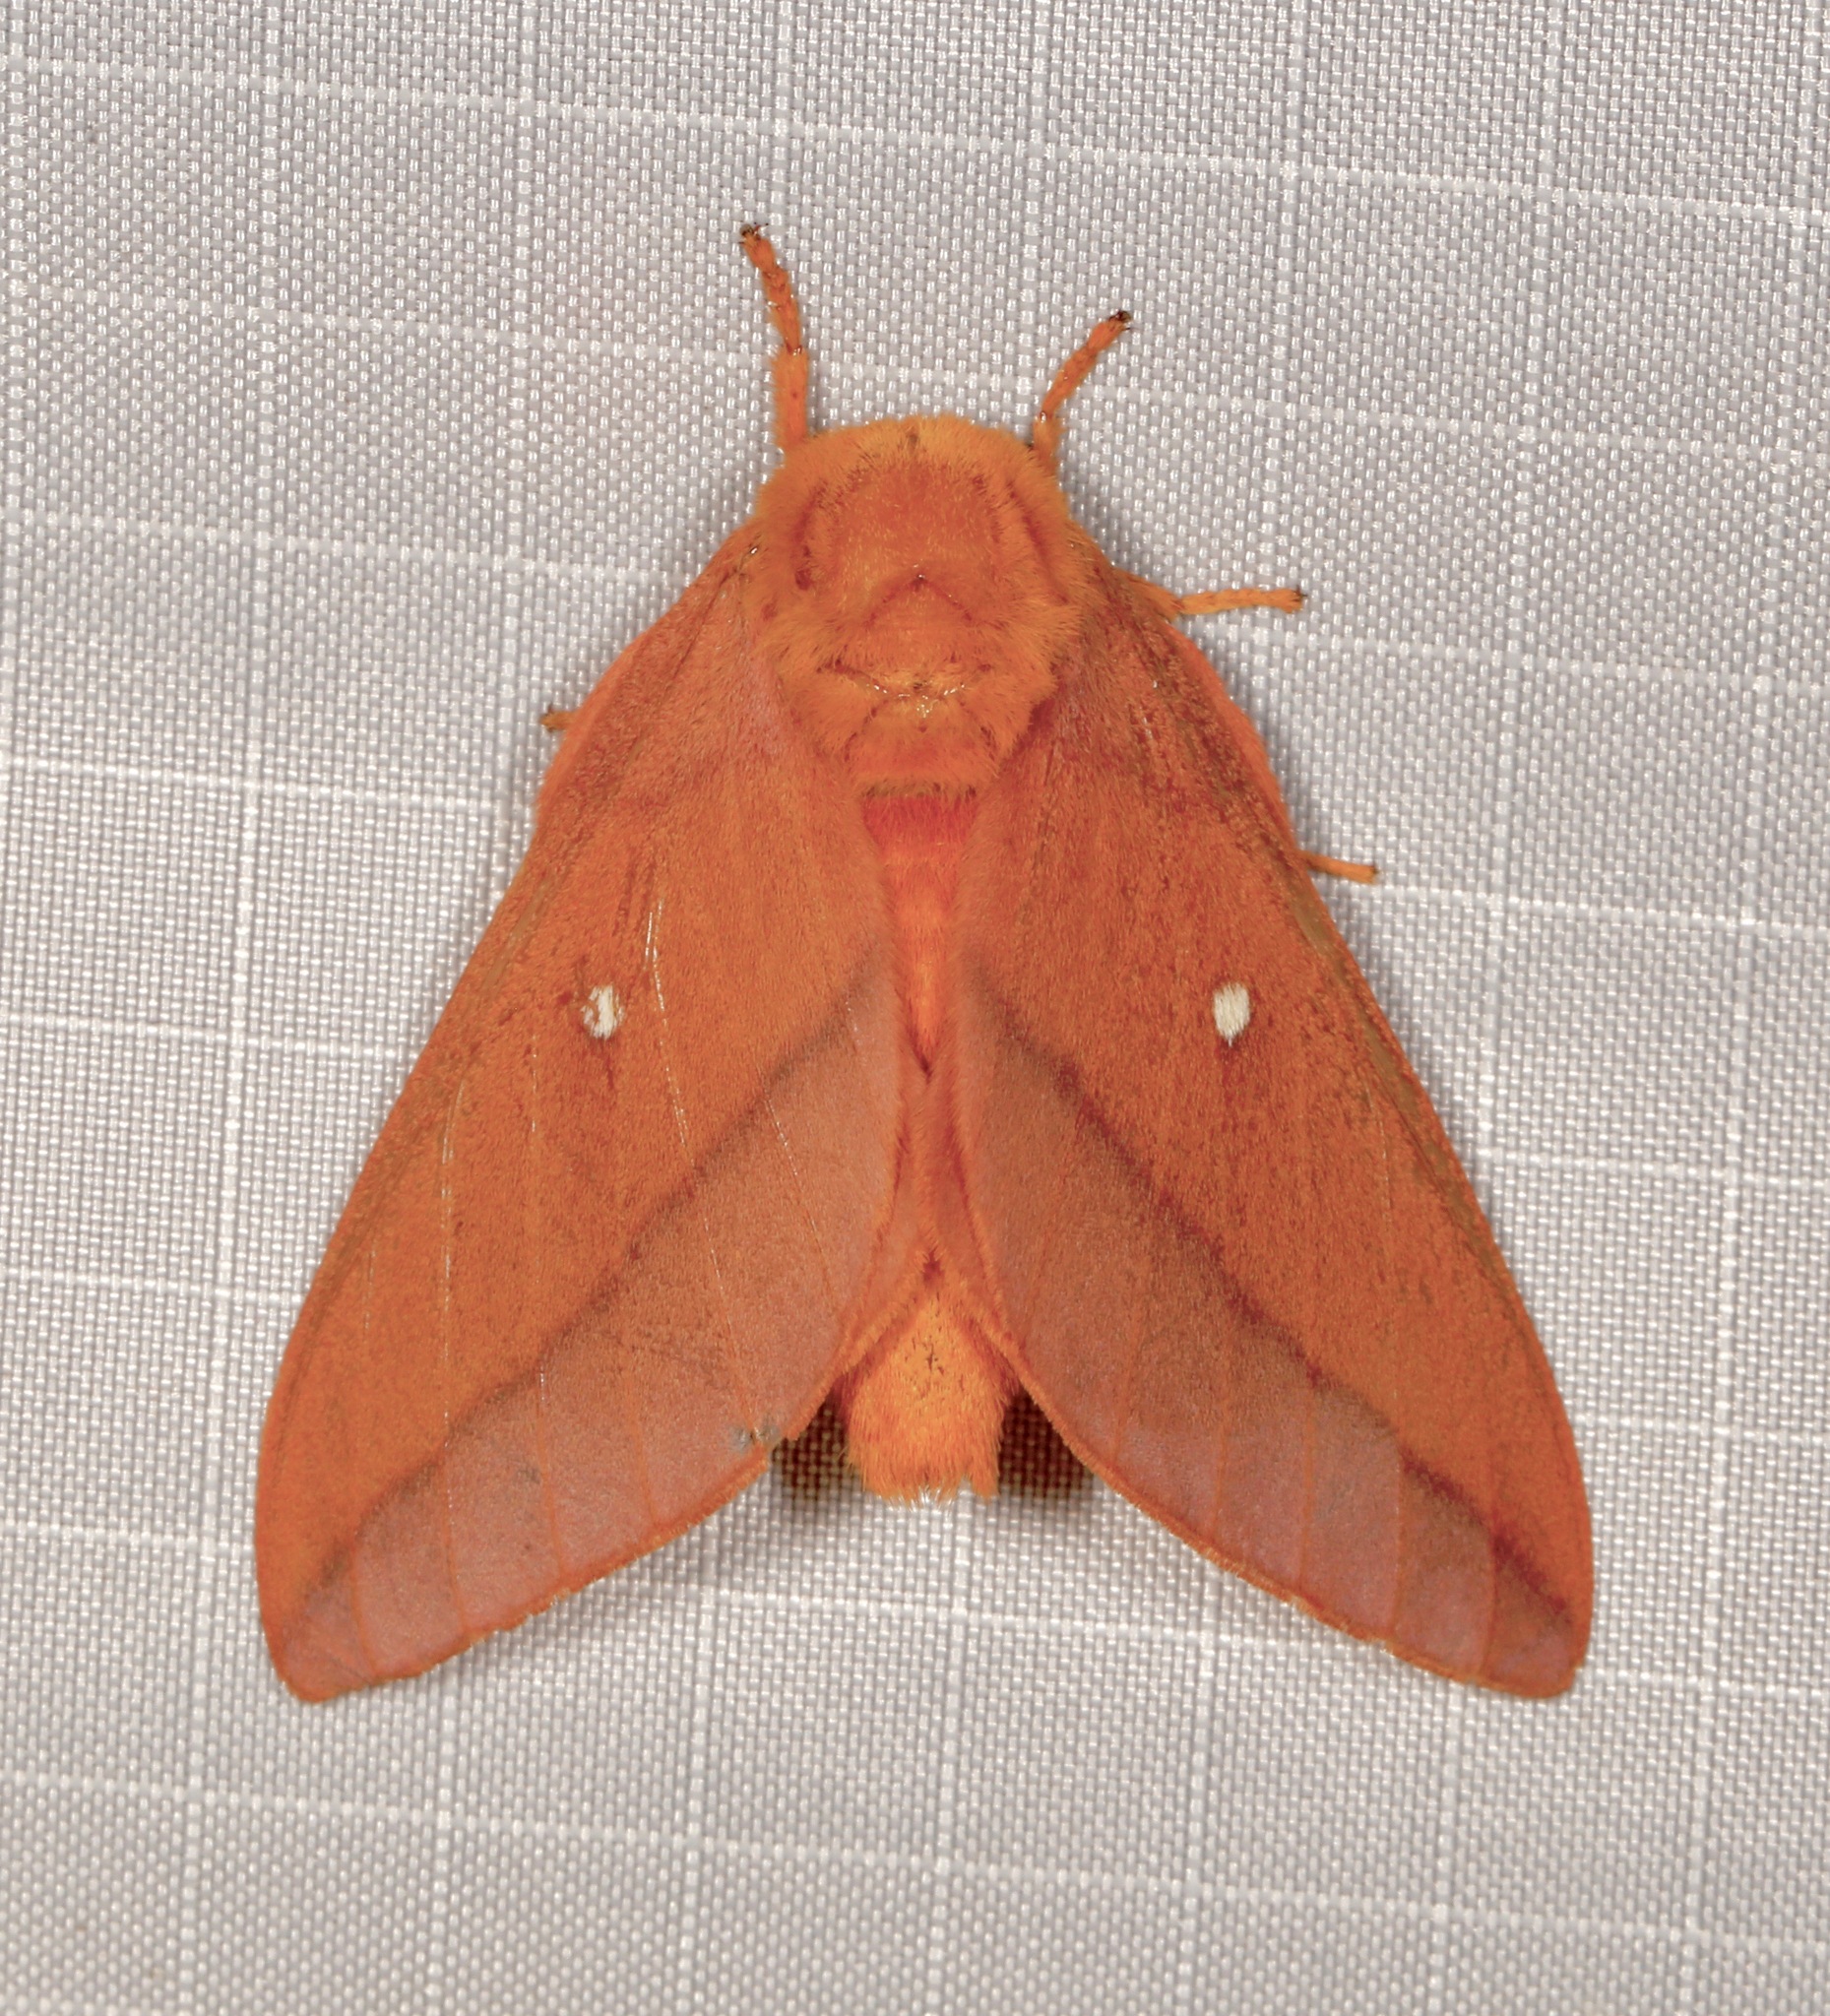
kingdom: Animalia
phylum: Arthropoda
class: Insecta
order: Lepidoptera
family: Saturniidae
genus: Anisota
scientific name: Anisota virginiensis
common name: Pink striped oakworm moth
